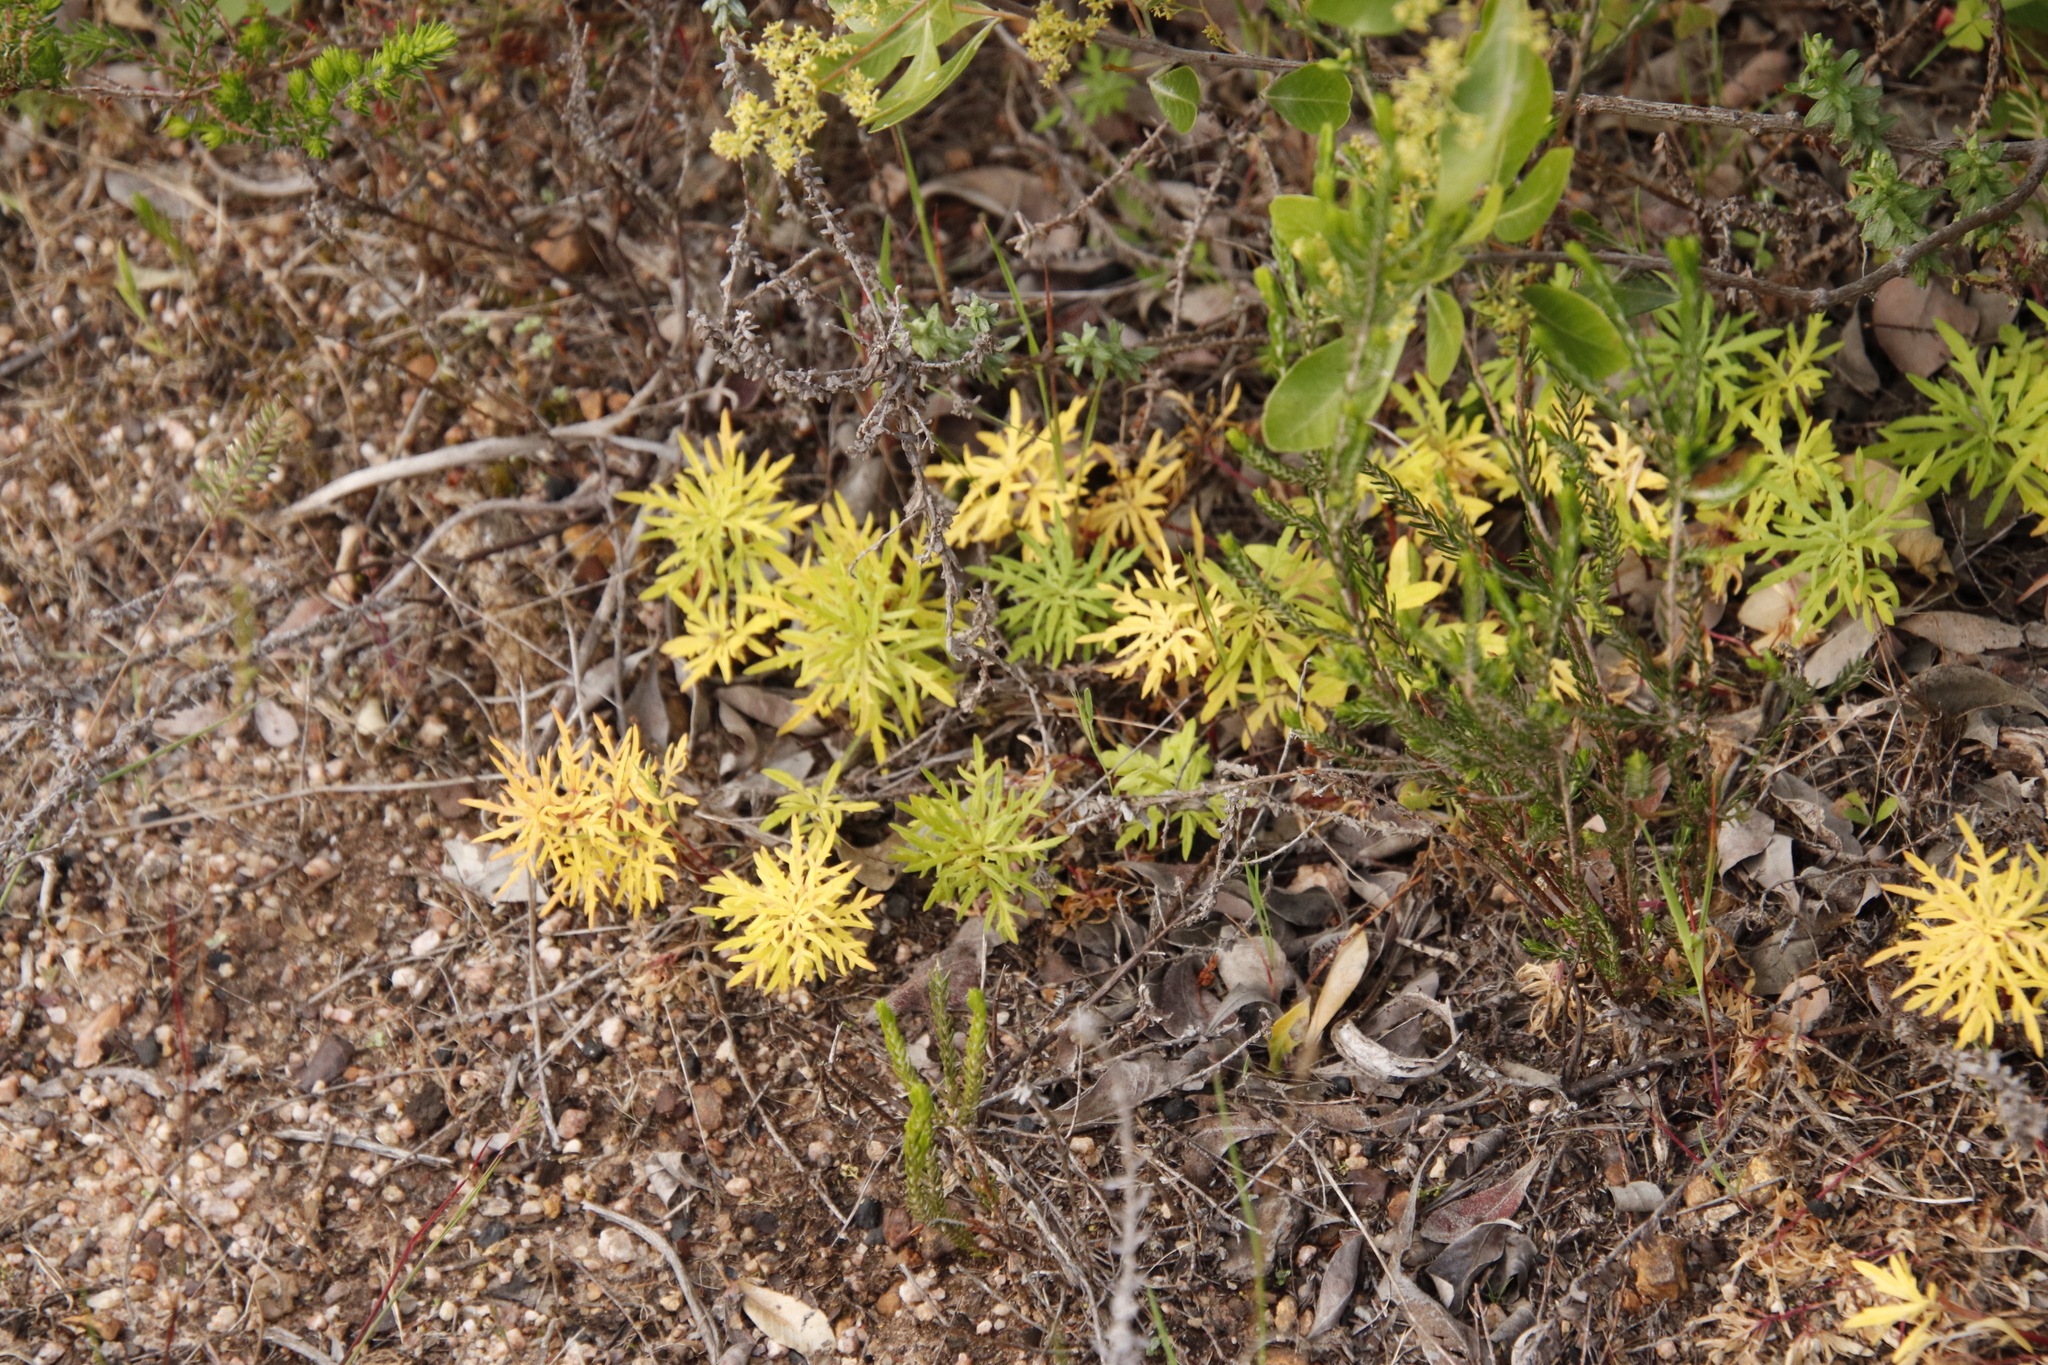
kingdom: Plantae
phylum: Tracheophyta
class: Magnoliopsida
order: Asterales
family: Campanulaceae
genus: Cyphia
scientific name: Cyphia bulbosa
